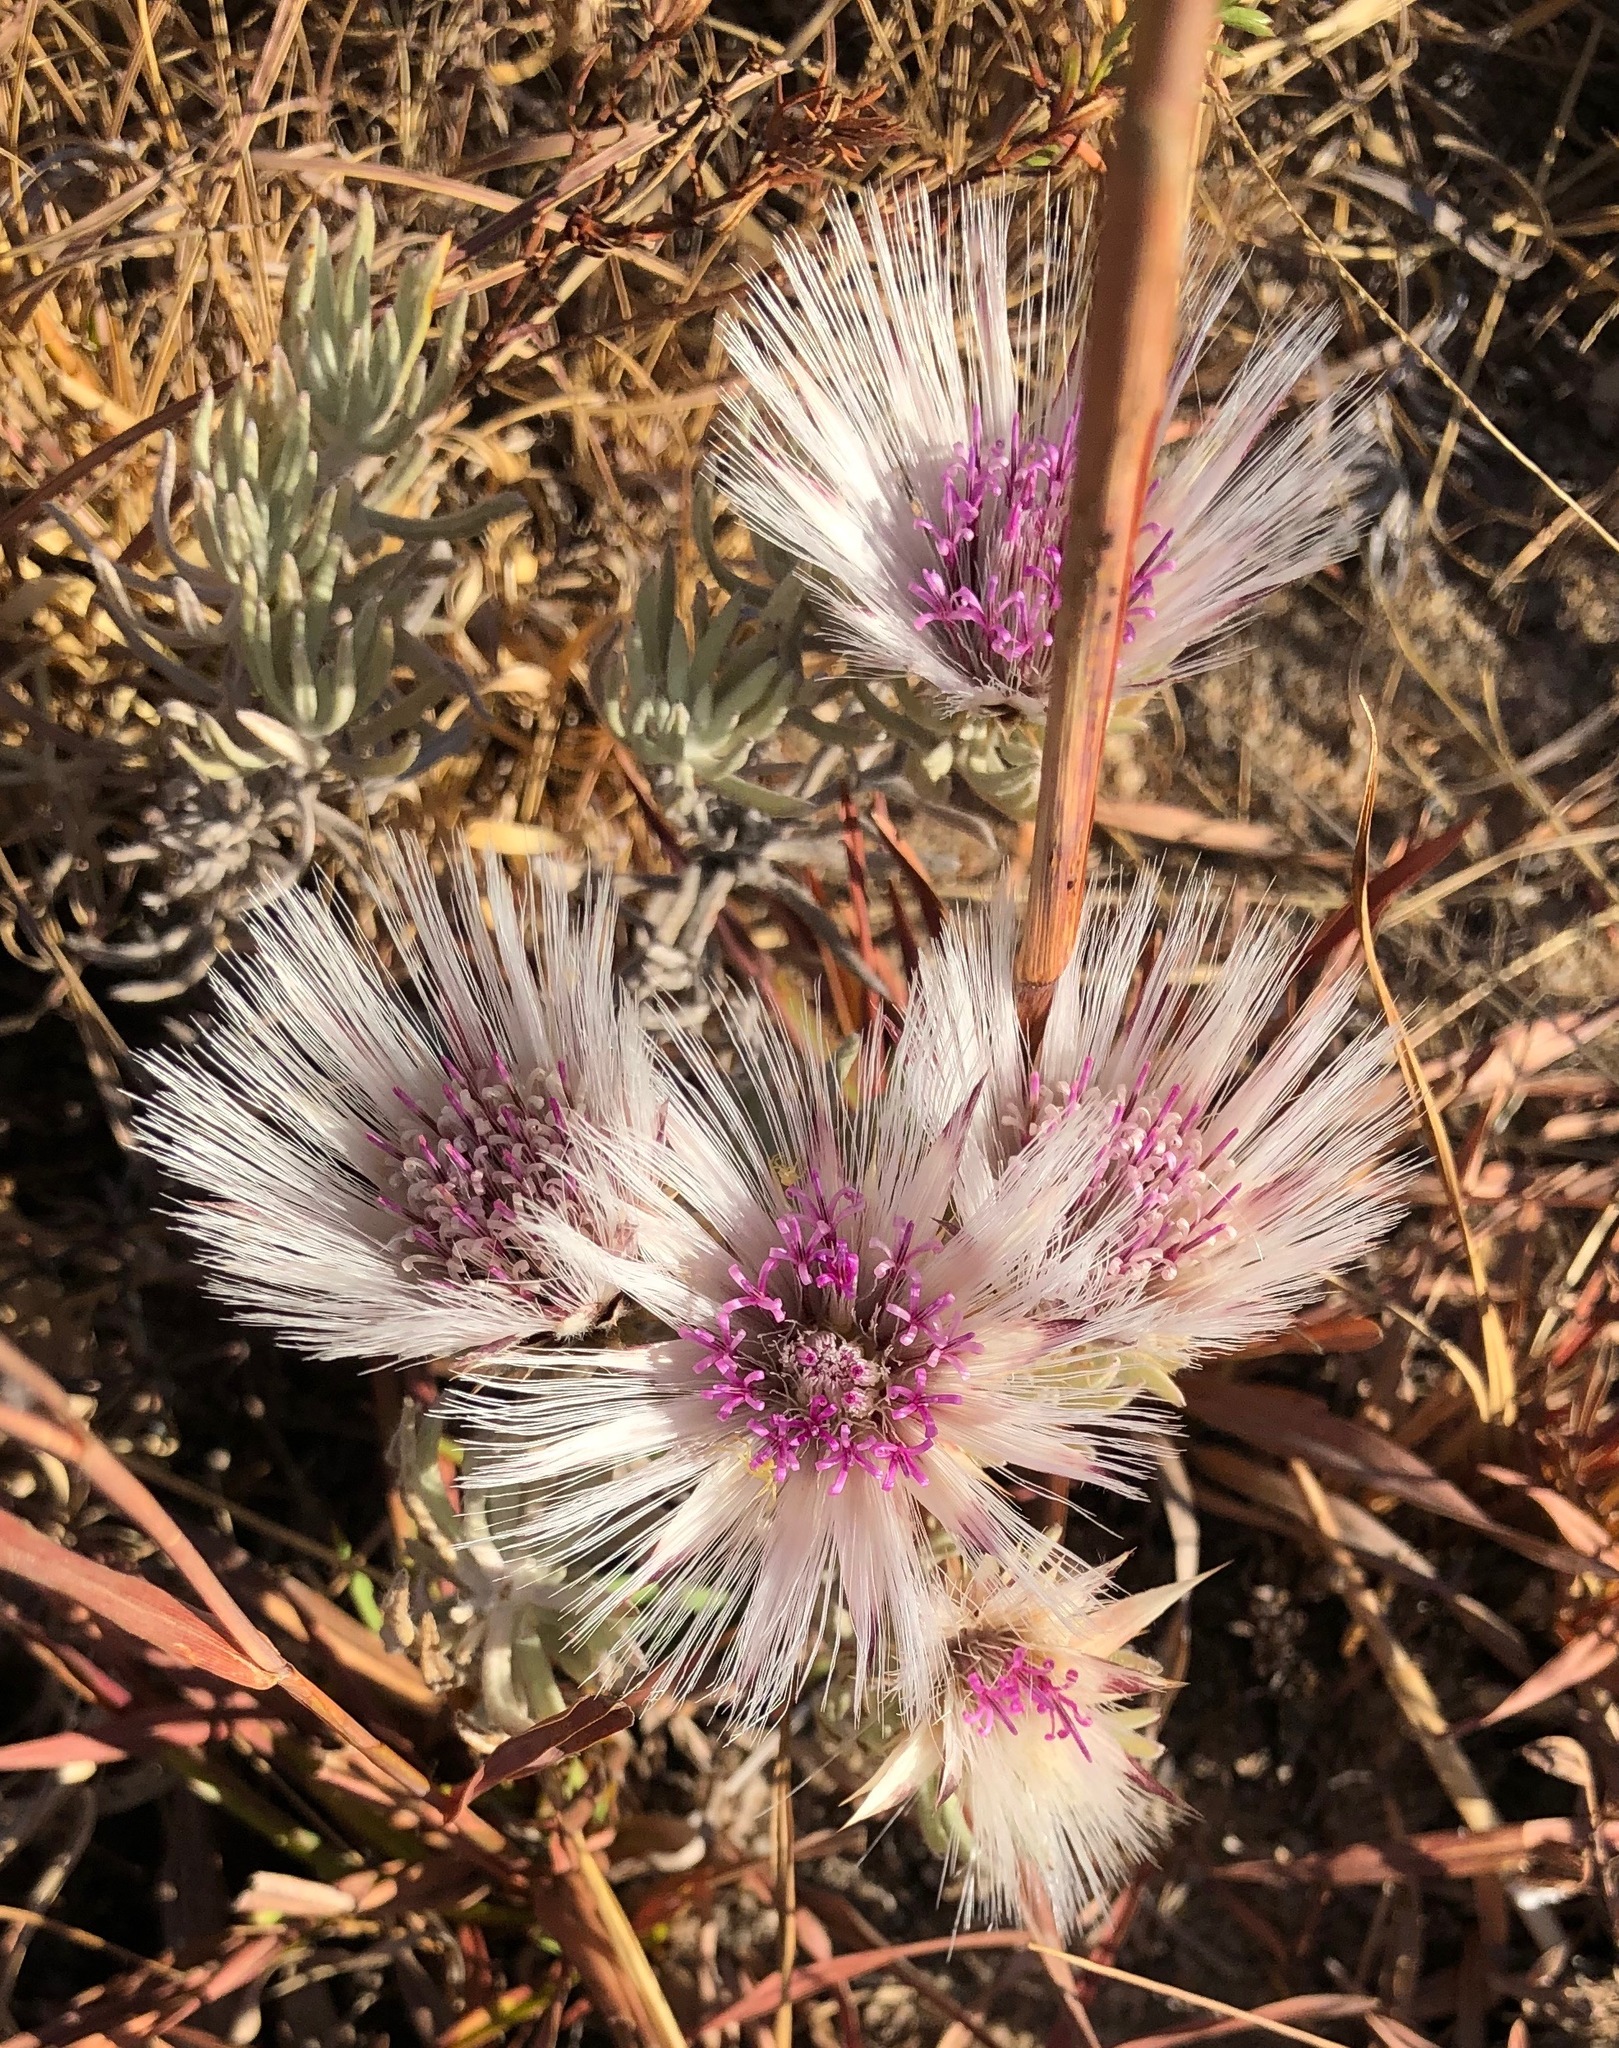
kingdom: Plantae
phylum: Tracheophyta
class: Magnoliopsida
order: Asterales
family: Asteraceae
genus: Dicoma
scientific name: Dicoma elegans
